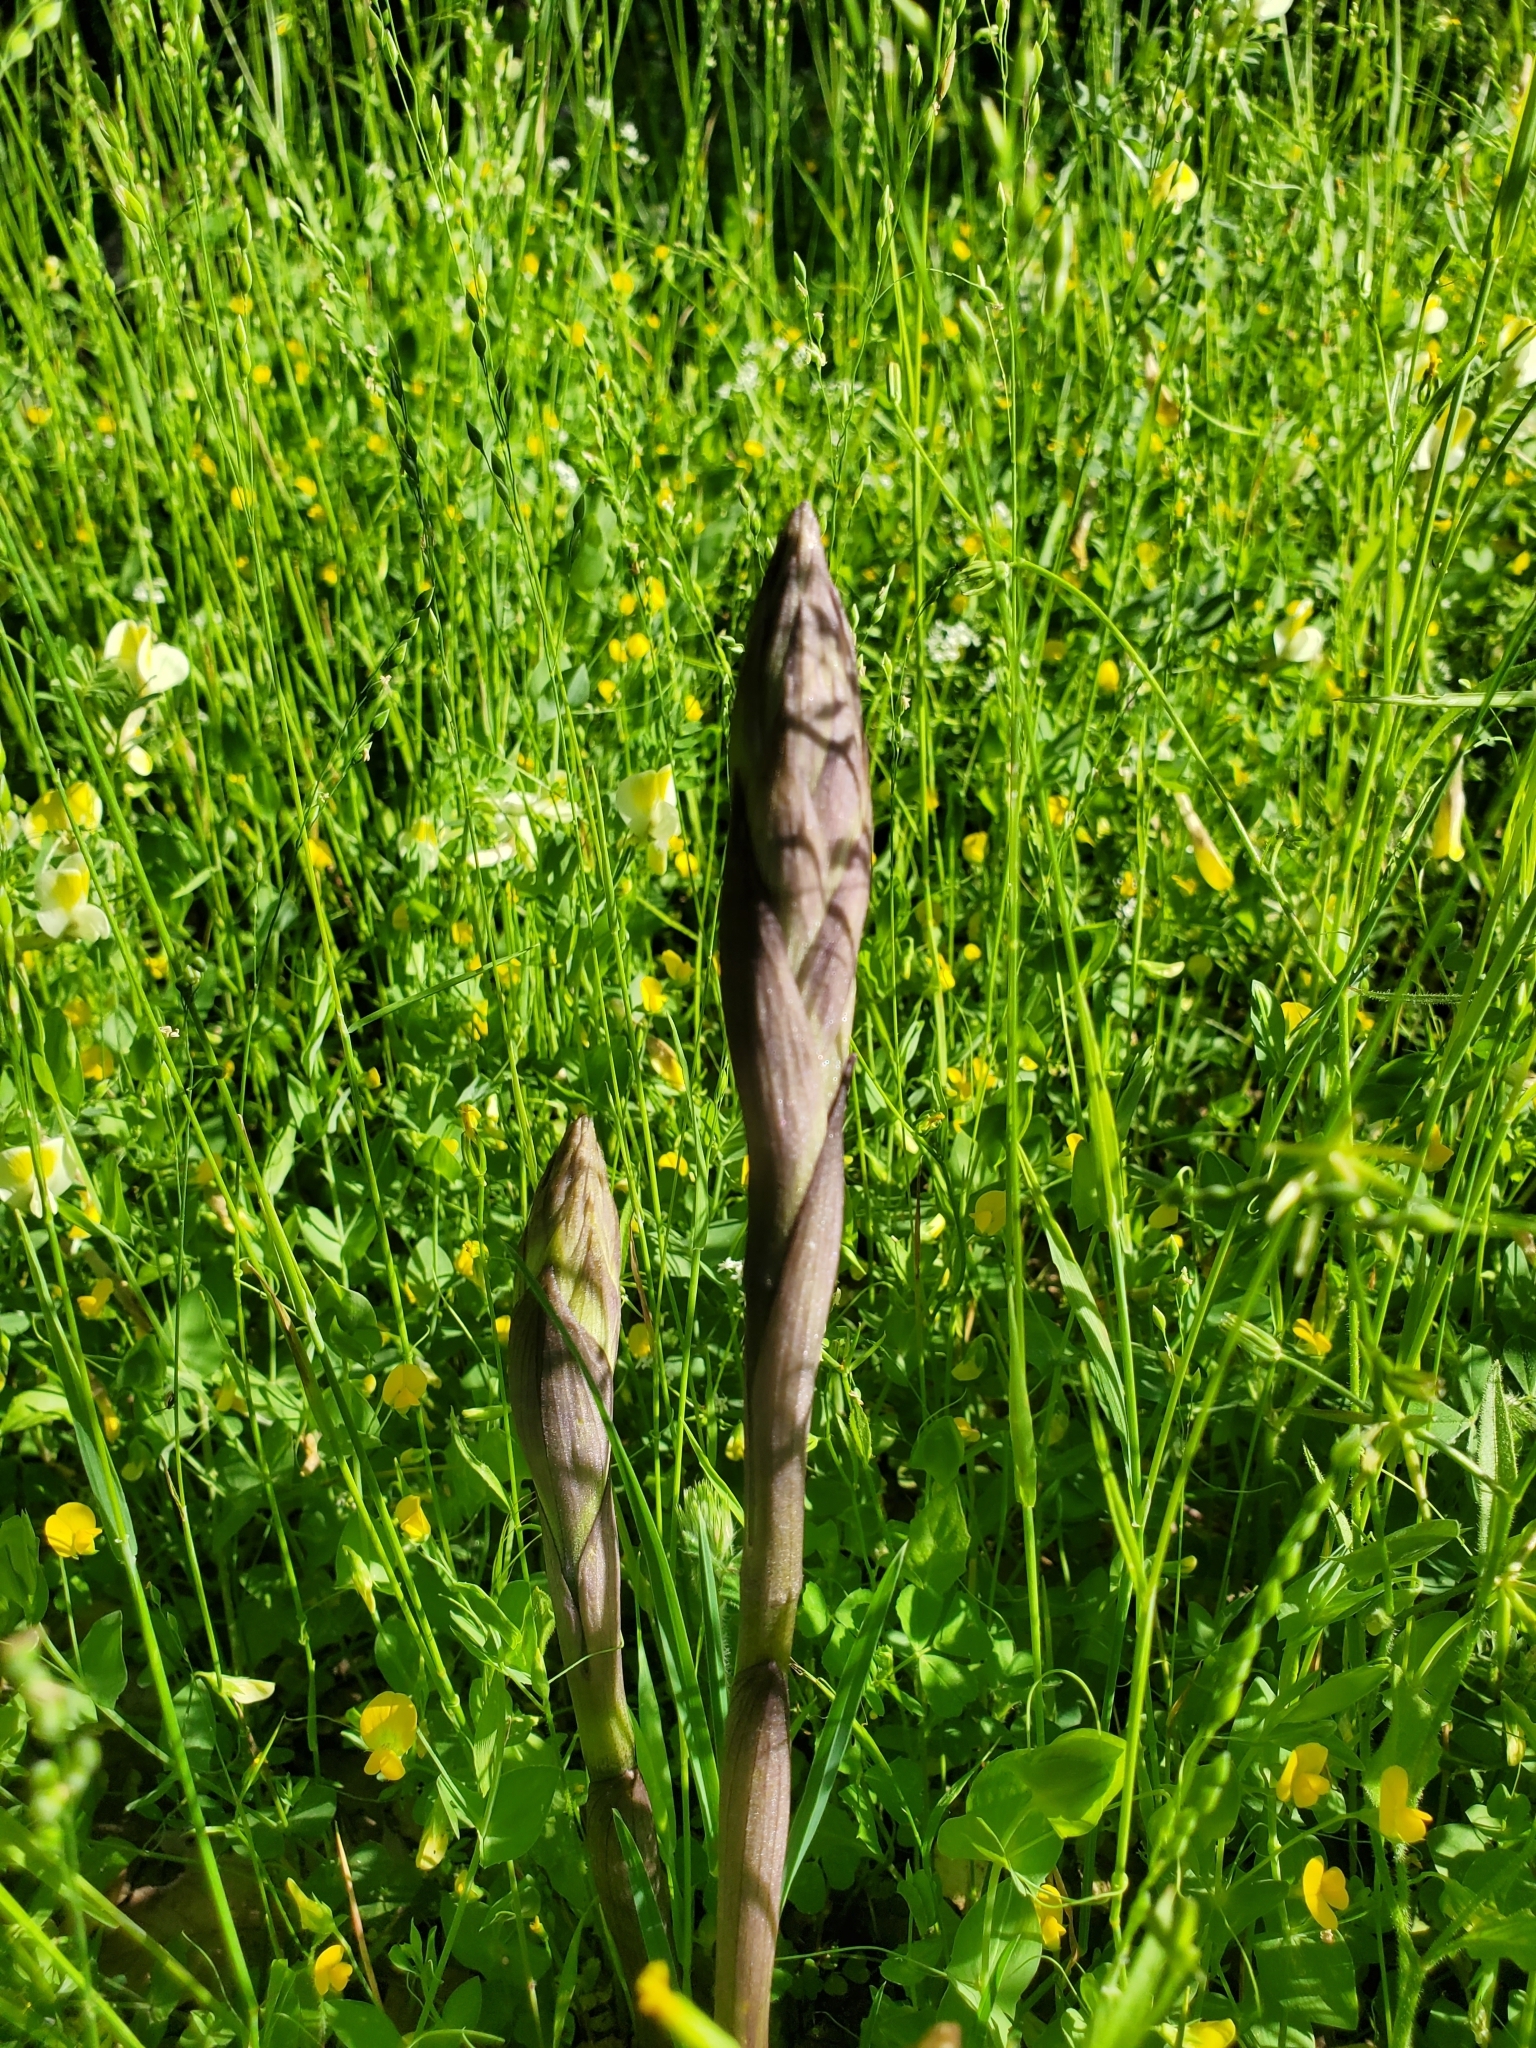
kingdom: Plantae
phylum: Tracheophyta
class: Liliopsida
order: Asparagales
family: Orchidaceae
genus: Limodorum
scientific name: Limodorum abortivum
